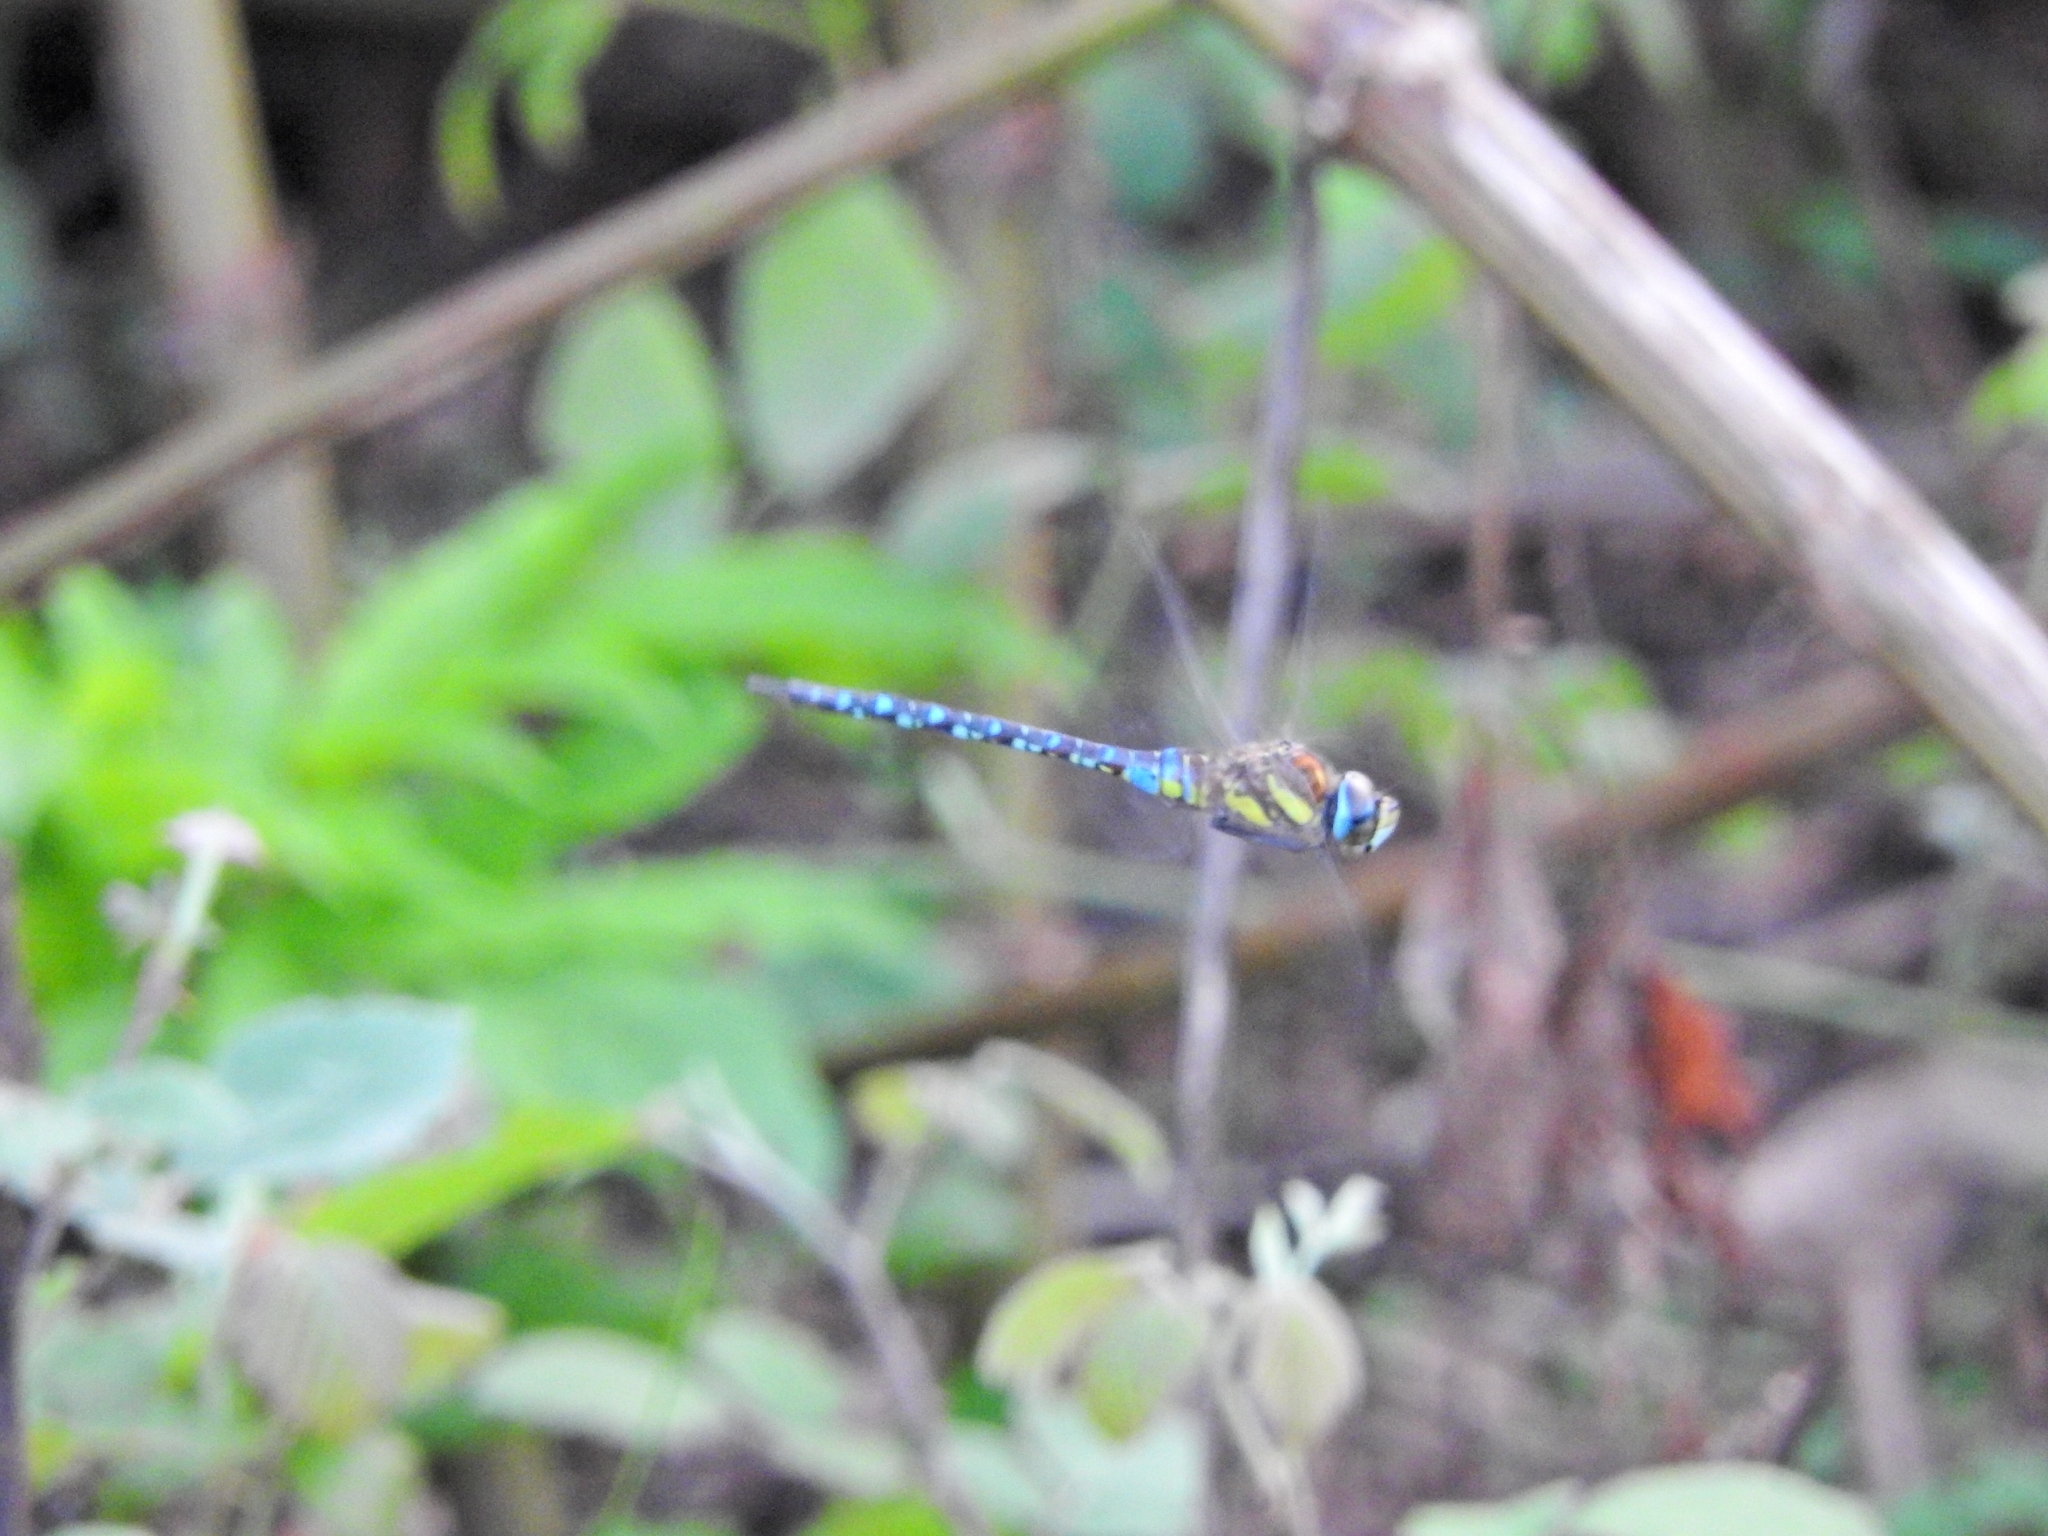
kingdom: Animalia
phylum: Arthropoda
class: Insecta
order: Odonata
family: Aeshnidae
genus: Aeshna
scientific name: Aeshna mixta
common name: Migrant hawker
